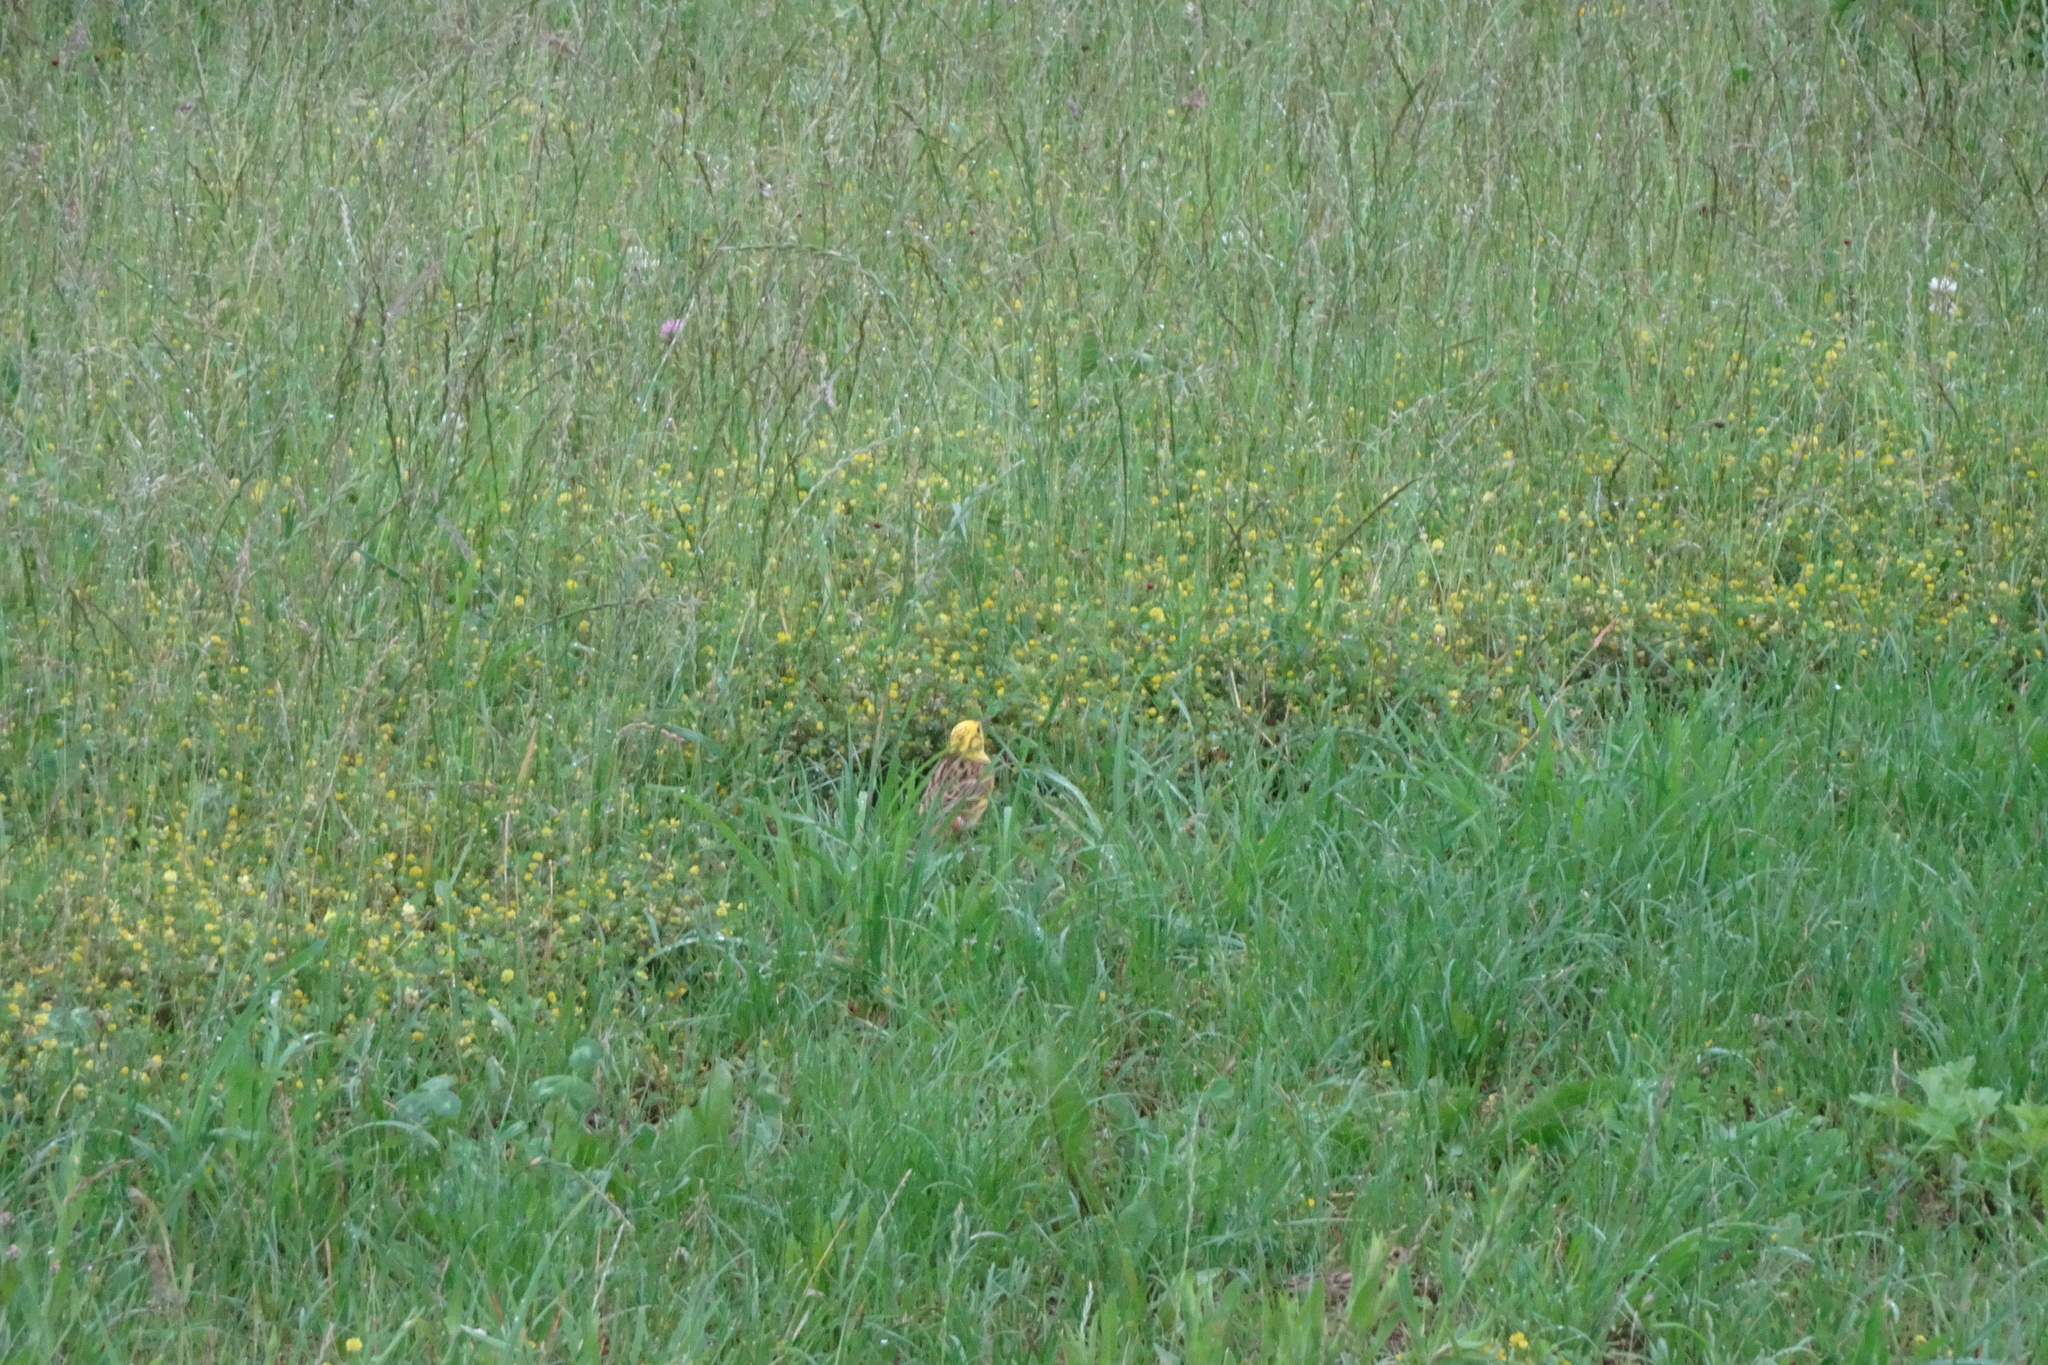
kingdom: Animalia
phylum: Chordata
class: Aves
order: Passeriformes
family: Emberizidae
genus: Emberiza
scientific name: Emberiza citrinella
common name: Yellowhammer
